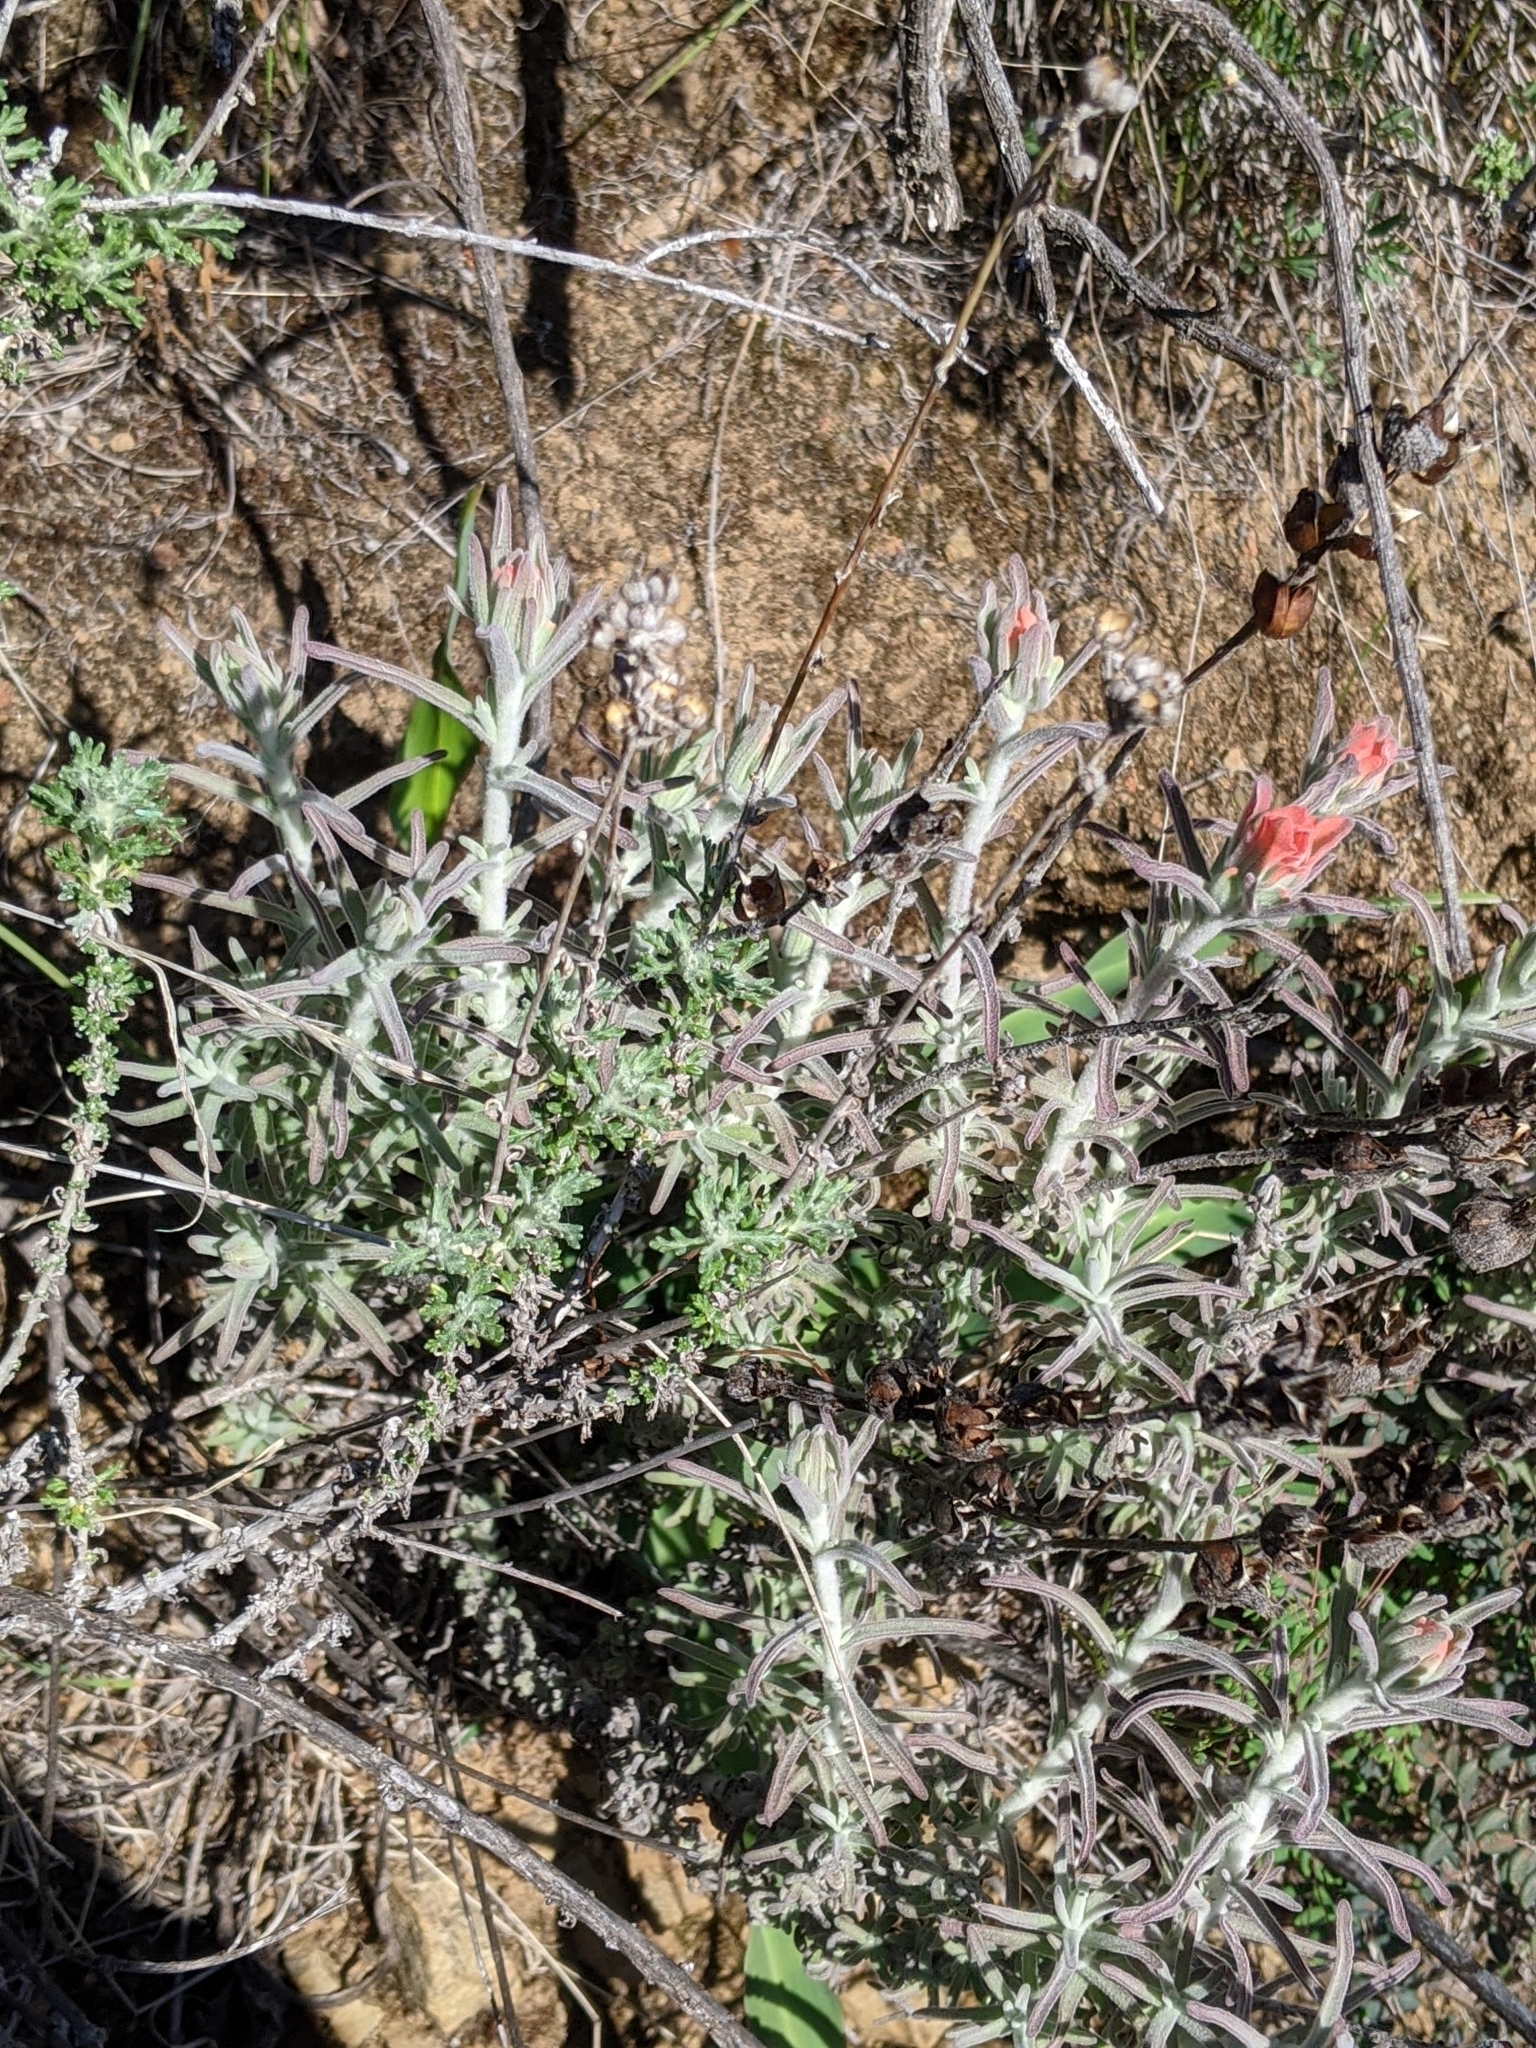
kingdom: Plantae
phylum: Tracheophyta
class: Magnoliopsida
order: Lamiales
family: Orobanchaceae
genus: Castilleja
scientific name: Castilleja foliolosa
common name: Woolly indian paintbrush
